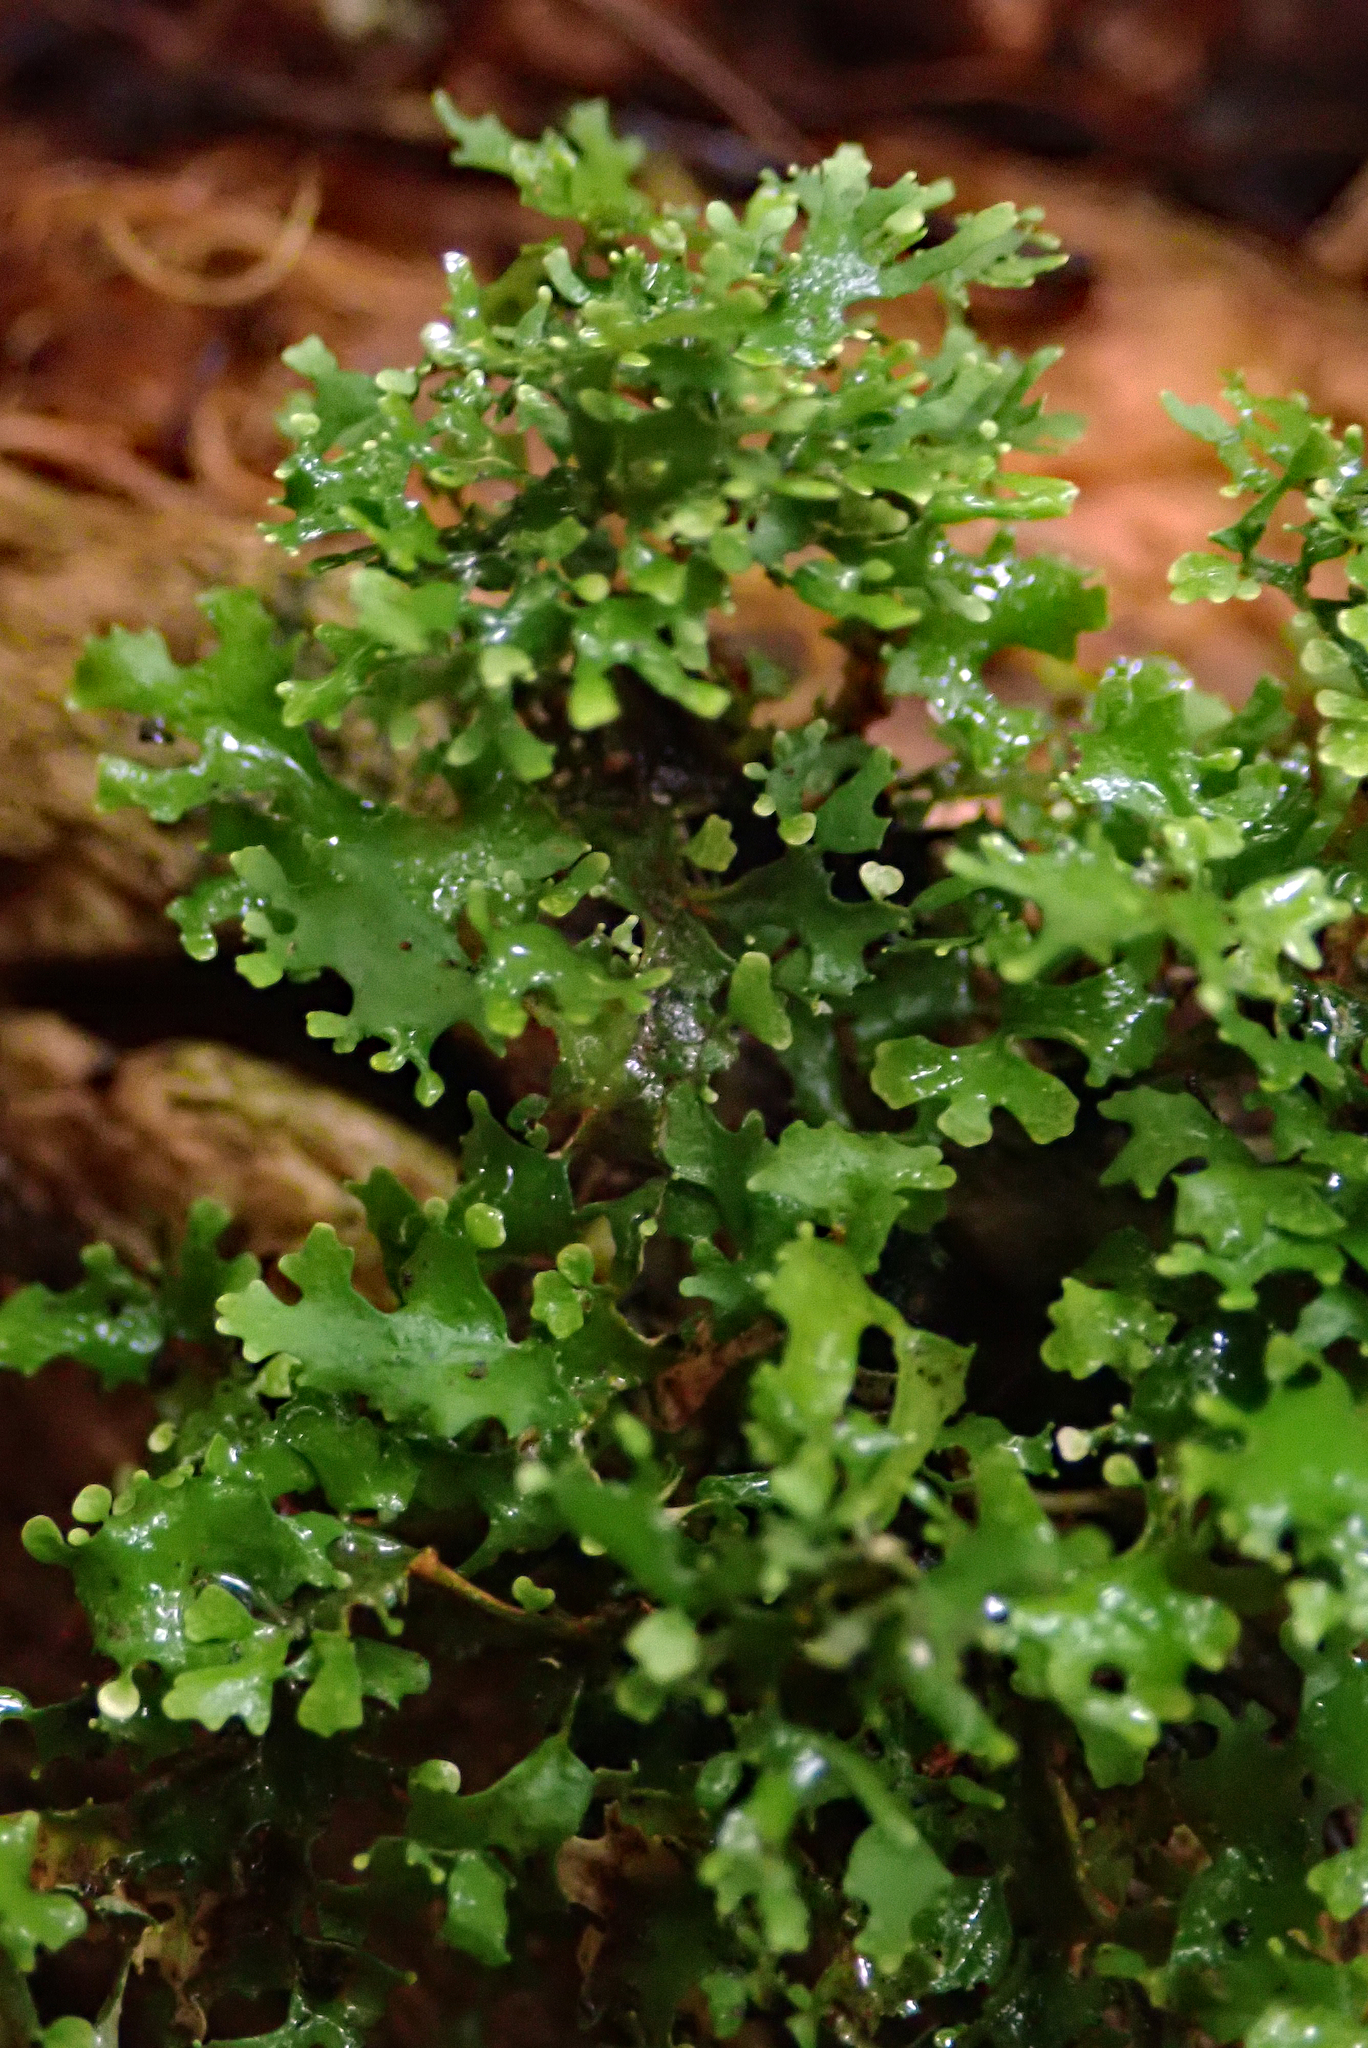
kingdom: Fungi
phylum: Ascomycota
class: Lecanoromycetes
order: Peltigerales
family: Lobariaceae
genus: Sticta
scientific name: Sticta
